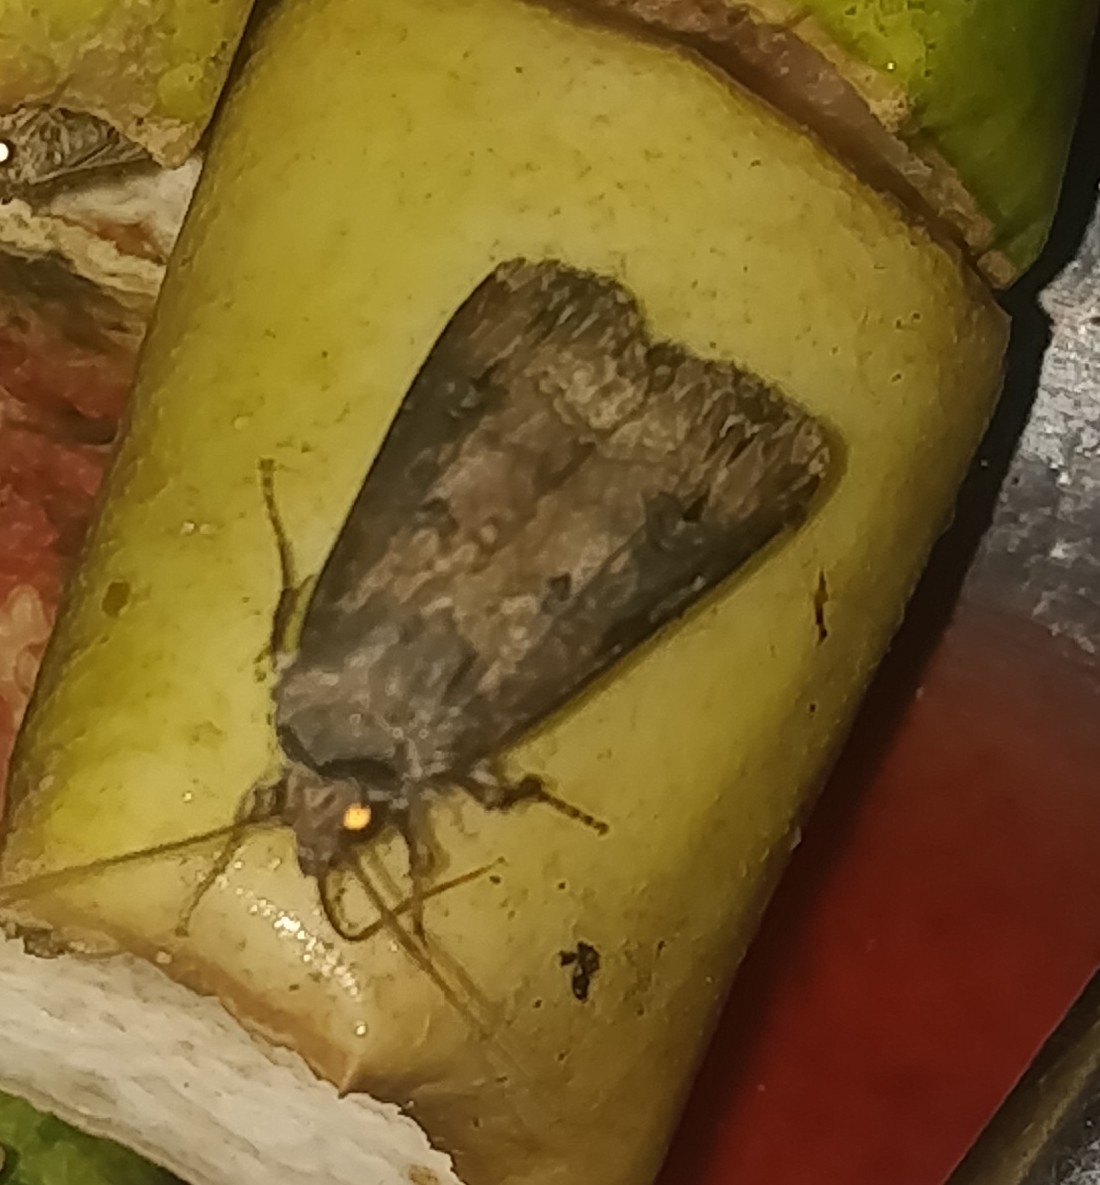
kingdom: Animalia
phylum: Arthropoda
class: Insecta
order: Lepidoptera
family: Noctuidae
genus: Agrotis
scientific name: Agrotis ipsilon
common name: Dark sword-grass
